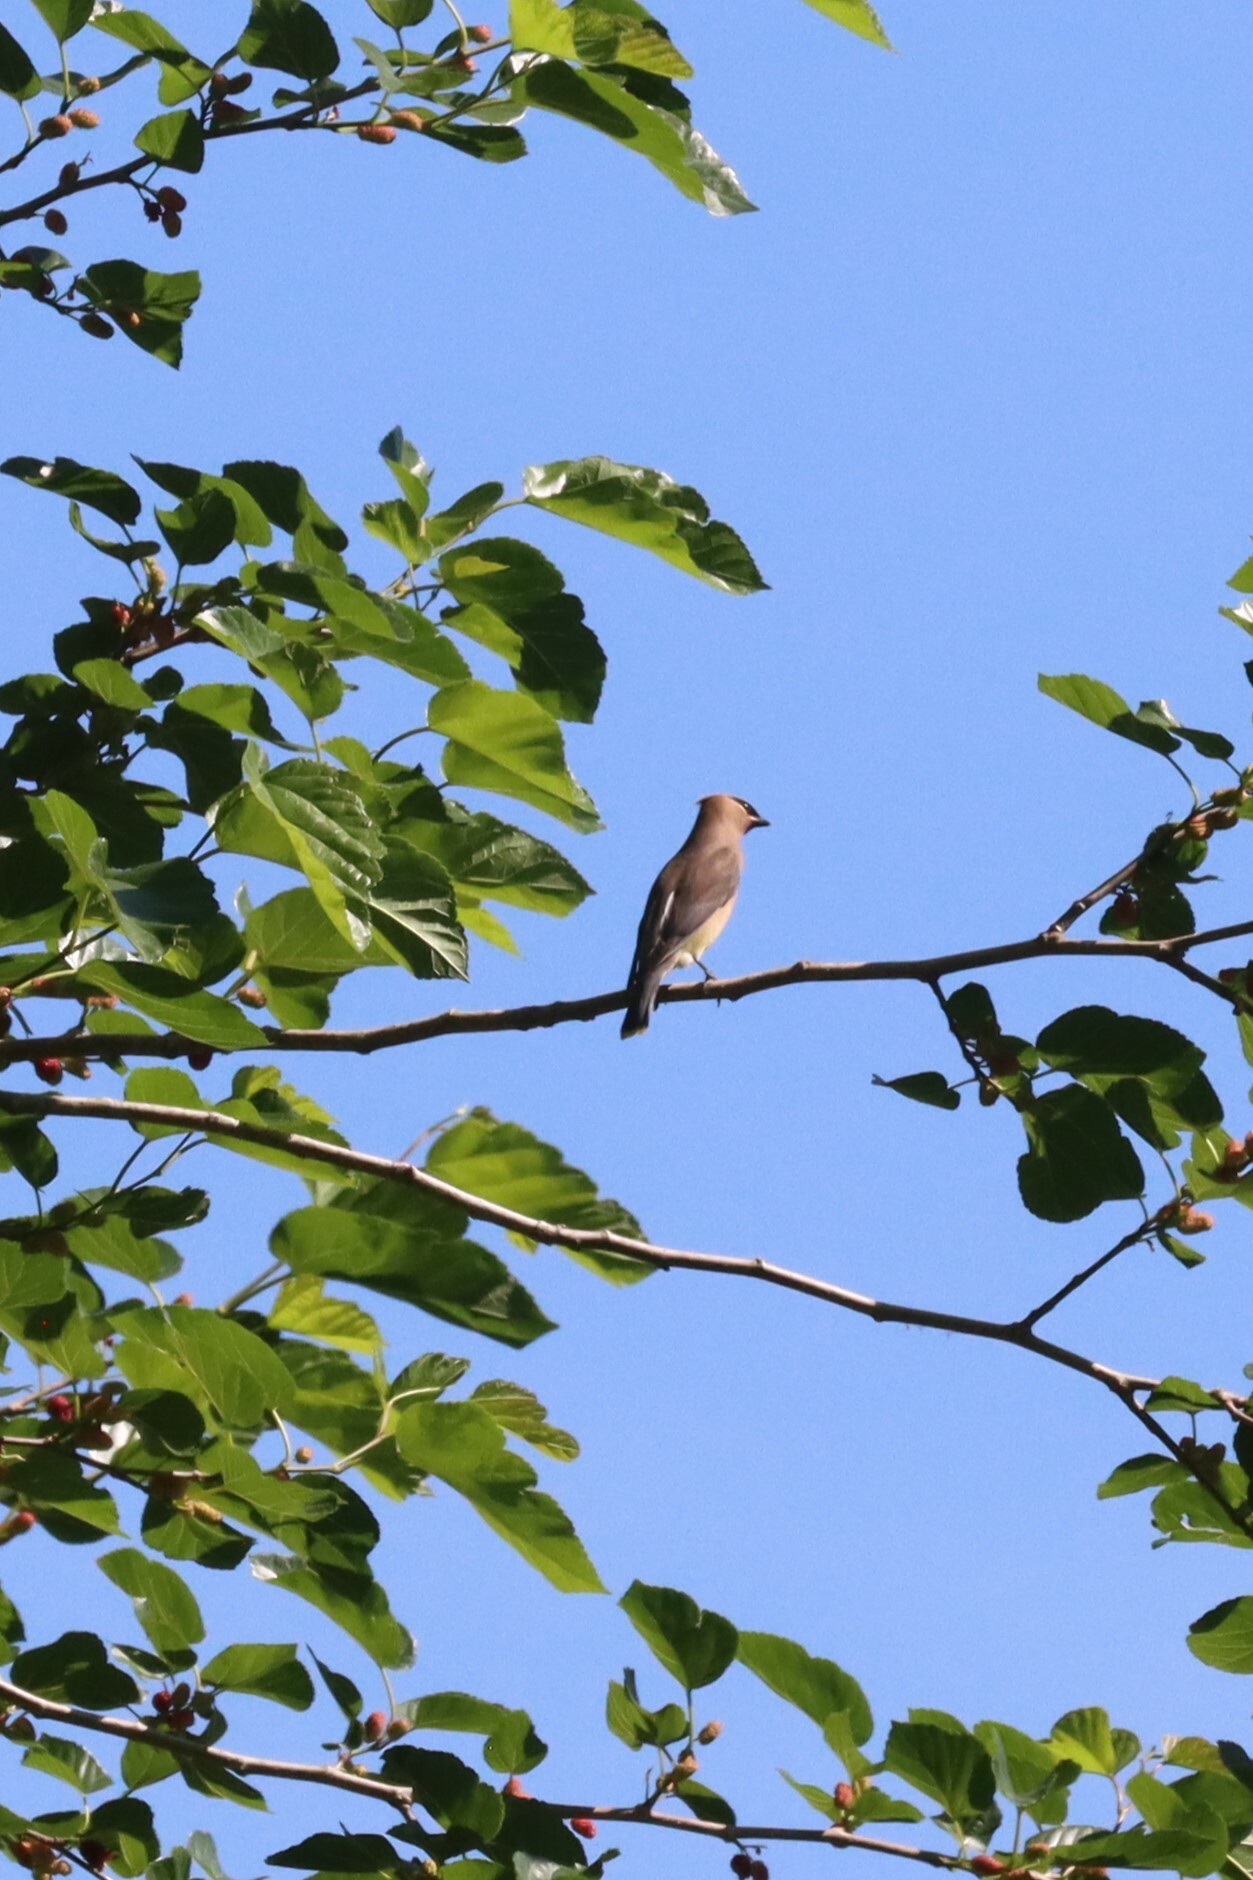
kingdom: Animalia
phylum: Chordata
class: Aves
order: Passeriformes
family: Bombycillidae
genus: Bombycilla
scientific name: Bombycilla cedrorum
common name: Cedar waxwing
